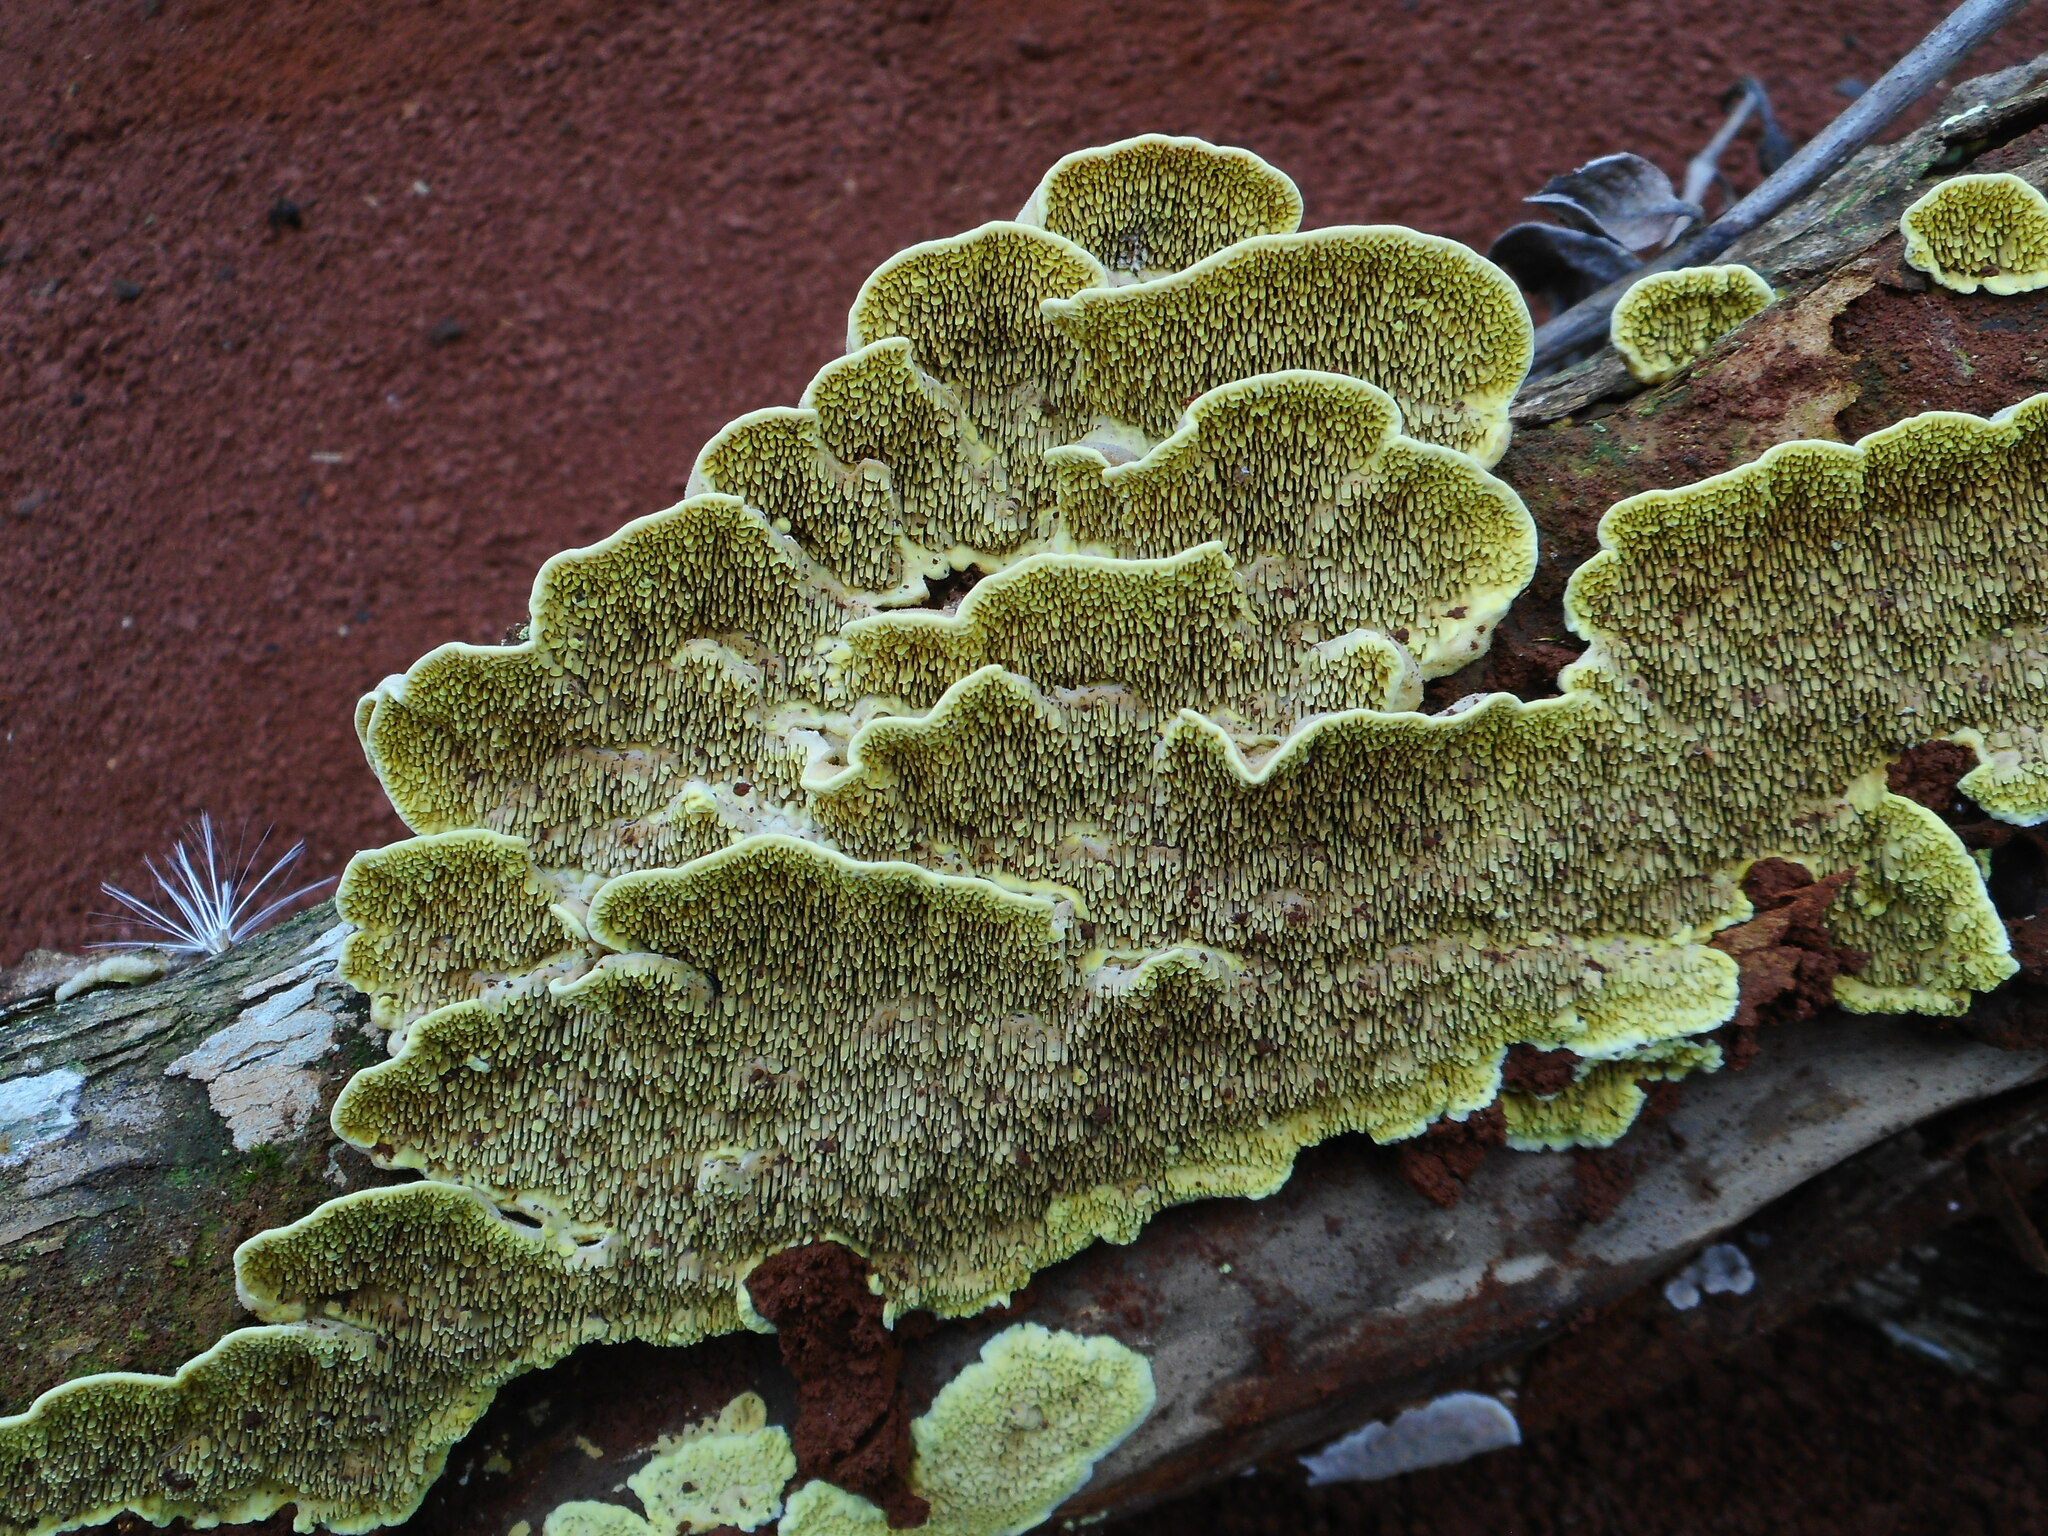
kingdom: Fungi
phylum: Basidiomycota
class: Agaricomycetes
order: Polyporales
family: Irpicaceae
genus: Flavodon
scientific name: Flavodon flavus
